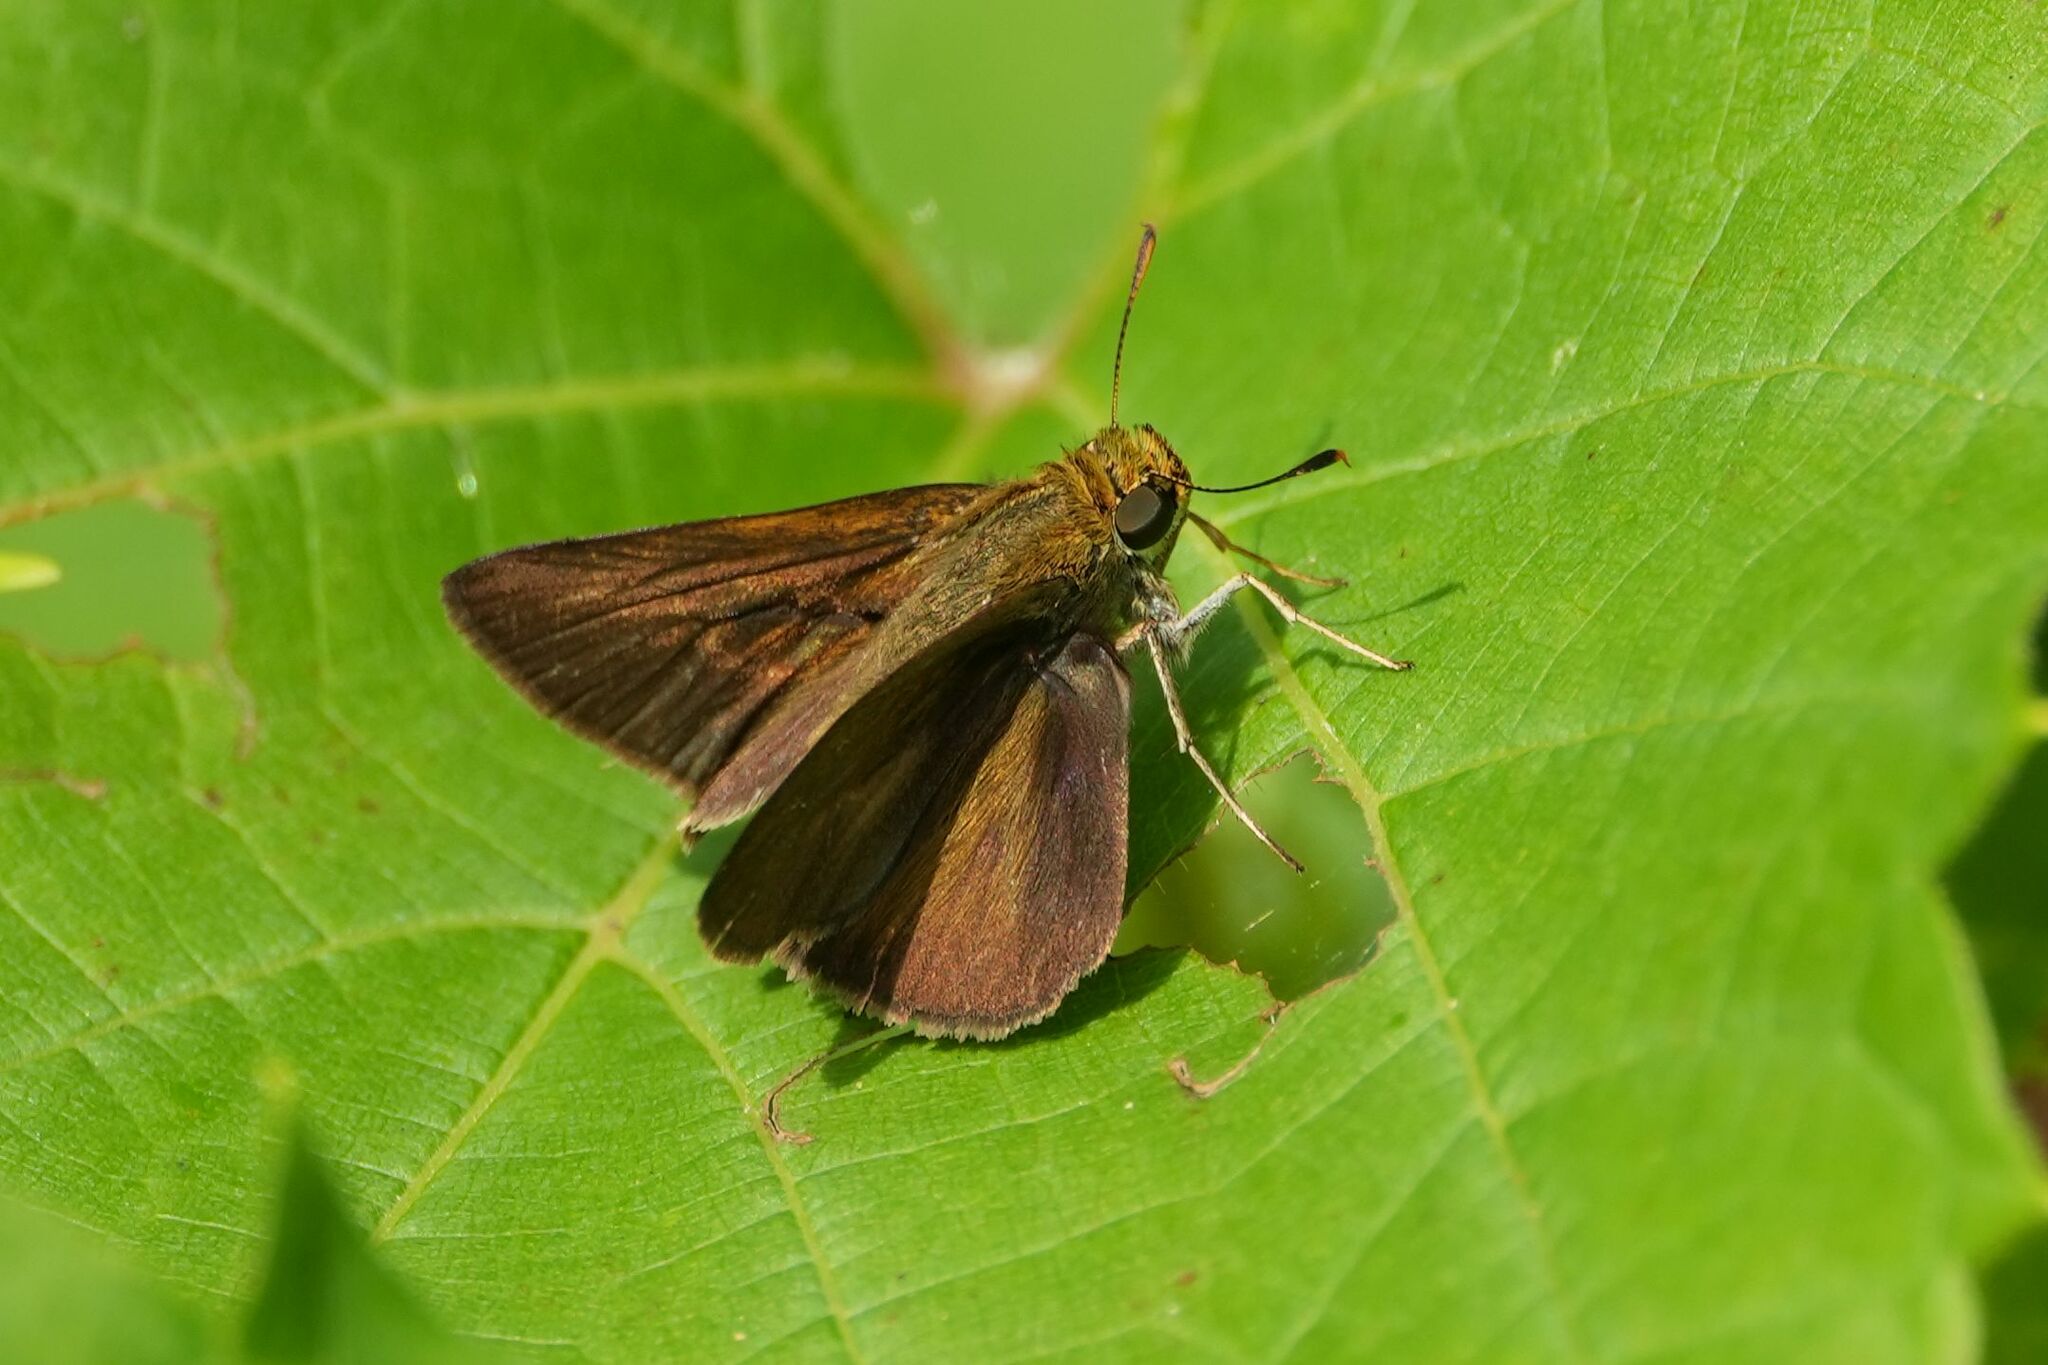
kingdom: Animalia
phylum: Arthropoda
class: Insecta
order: Lepidoptera
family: Hesperiidae
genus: Euphyes
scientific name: Euphyes vestris
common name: Dun skipper
